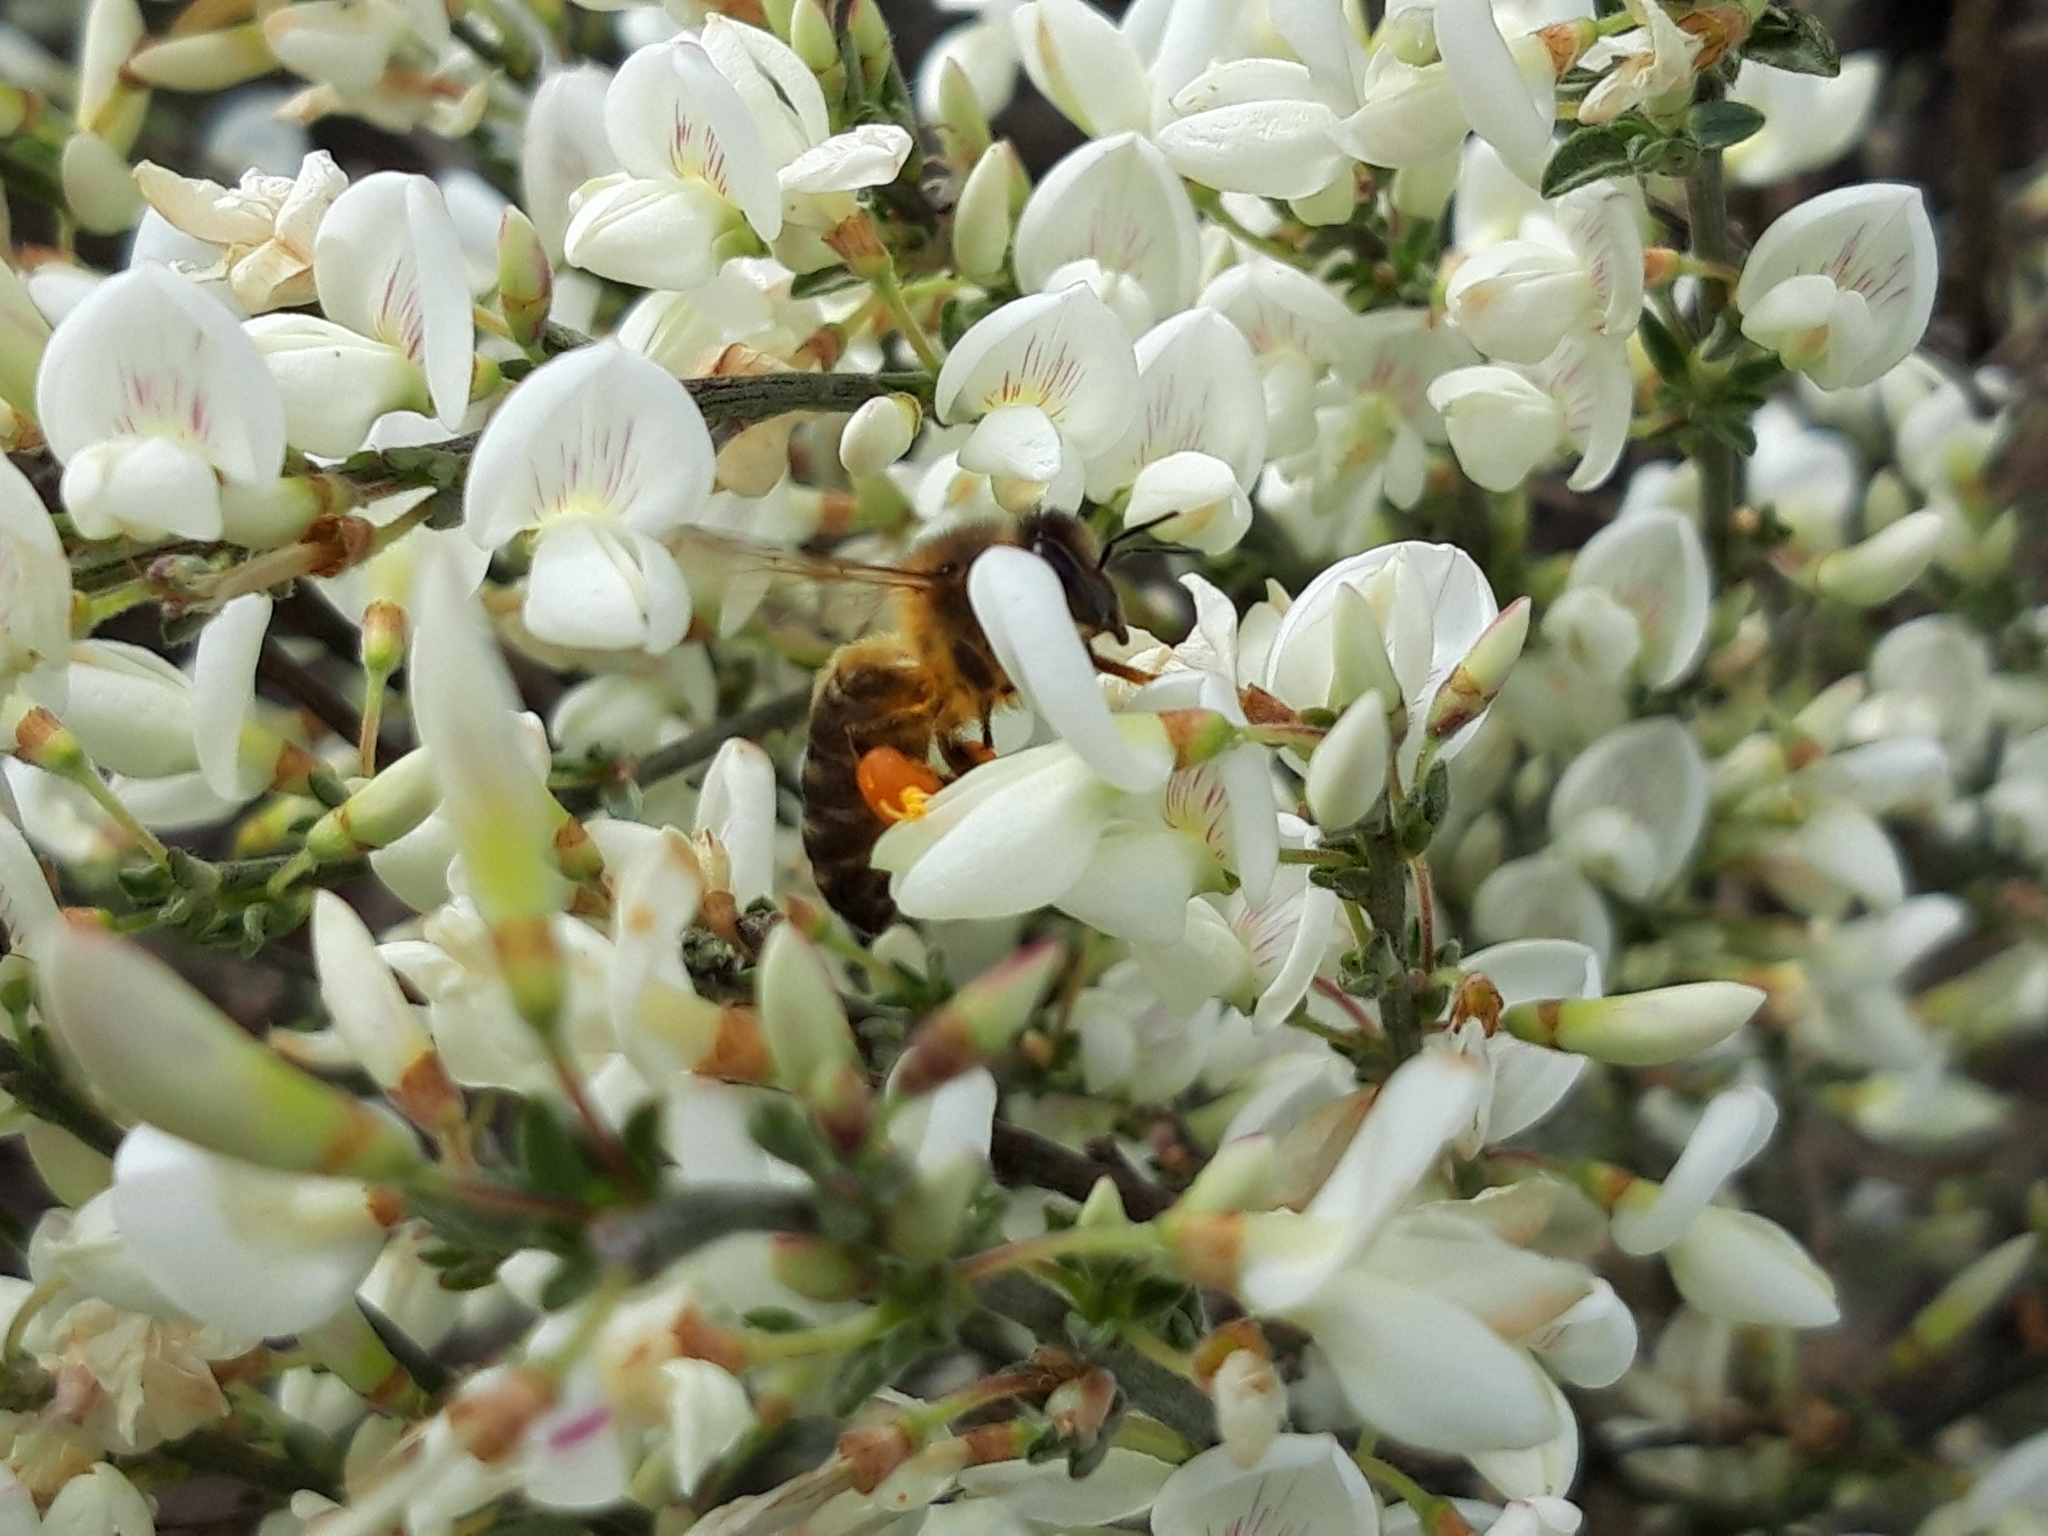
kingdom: Animalia
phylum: Arthropoda
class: Insecta
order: Hymenoptera
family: Apidae
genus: Apis
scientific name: Apis mellifera
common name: Honey bee
